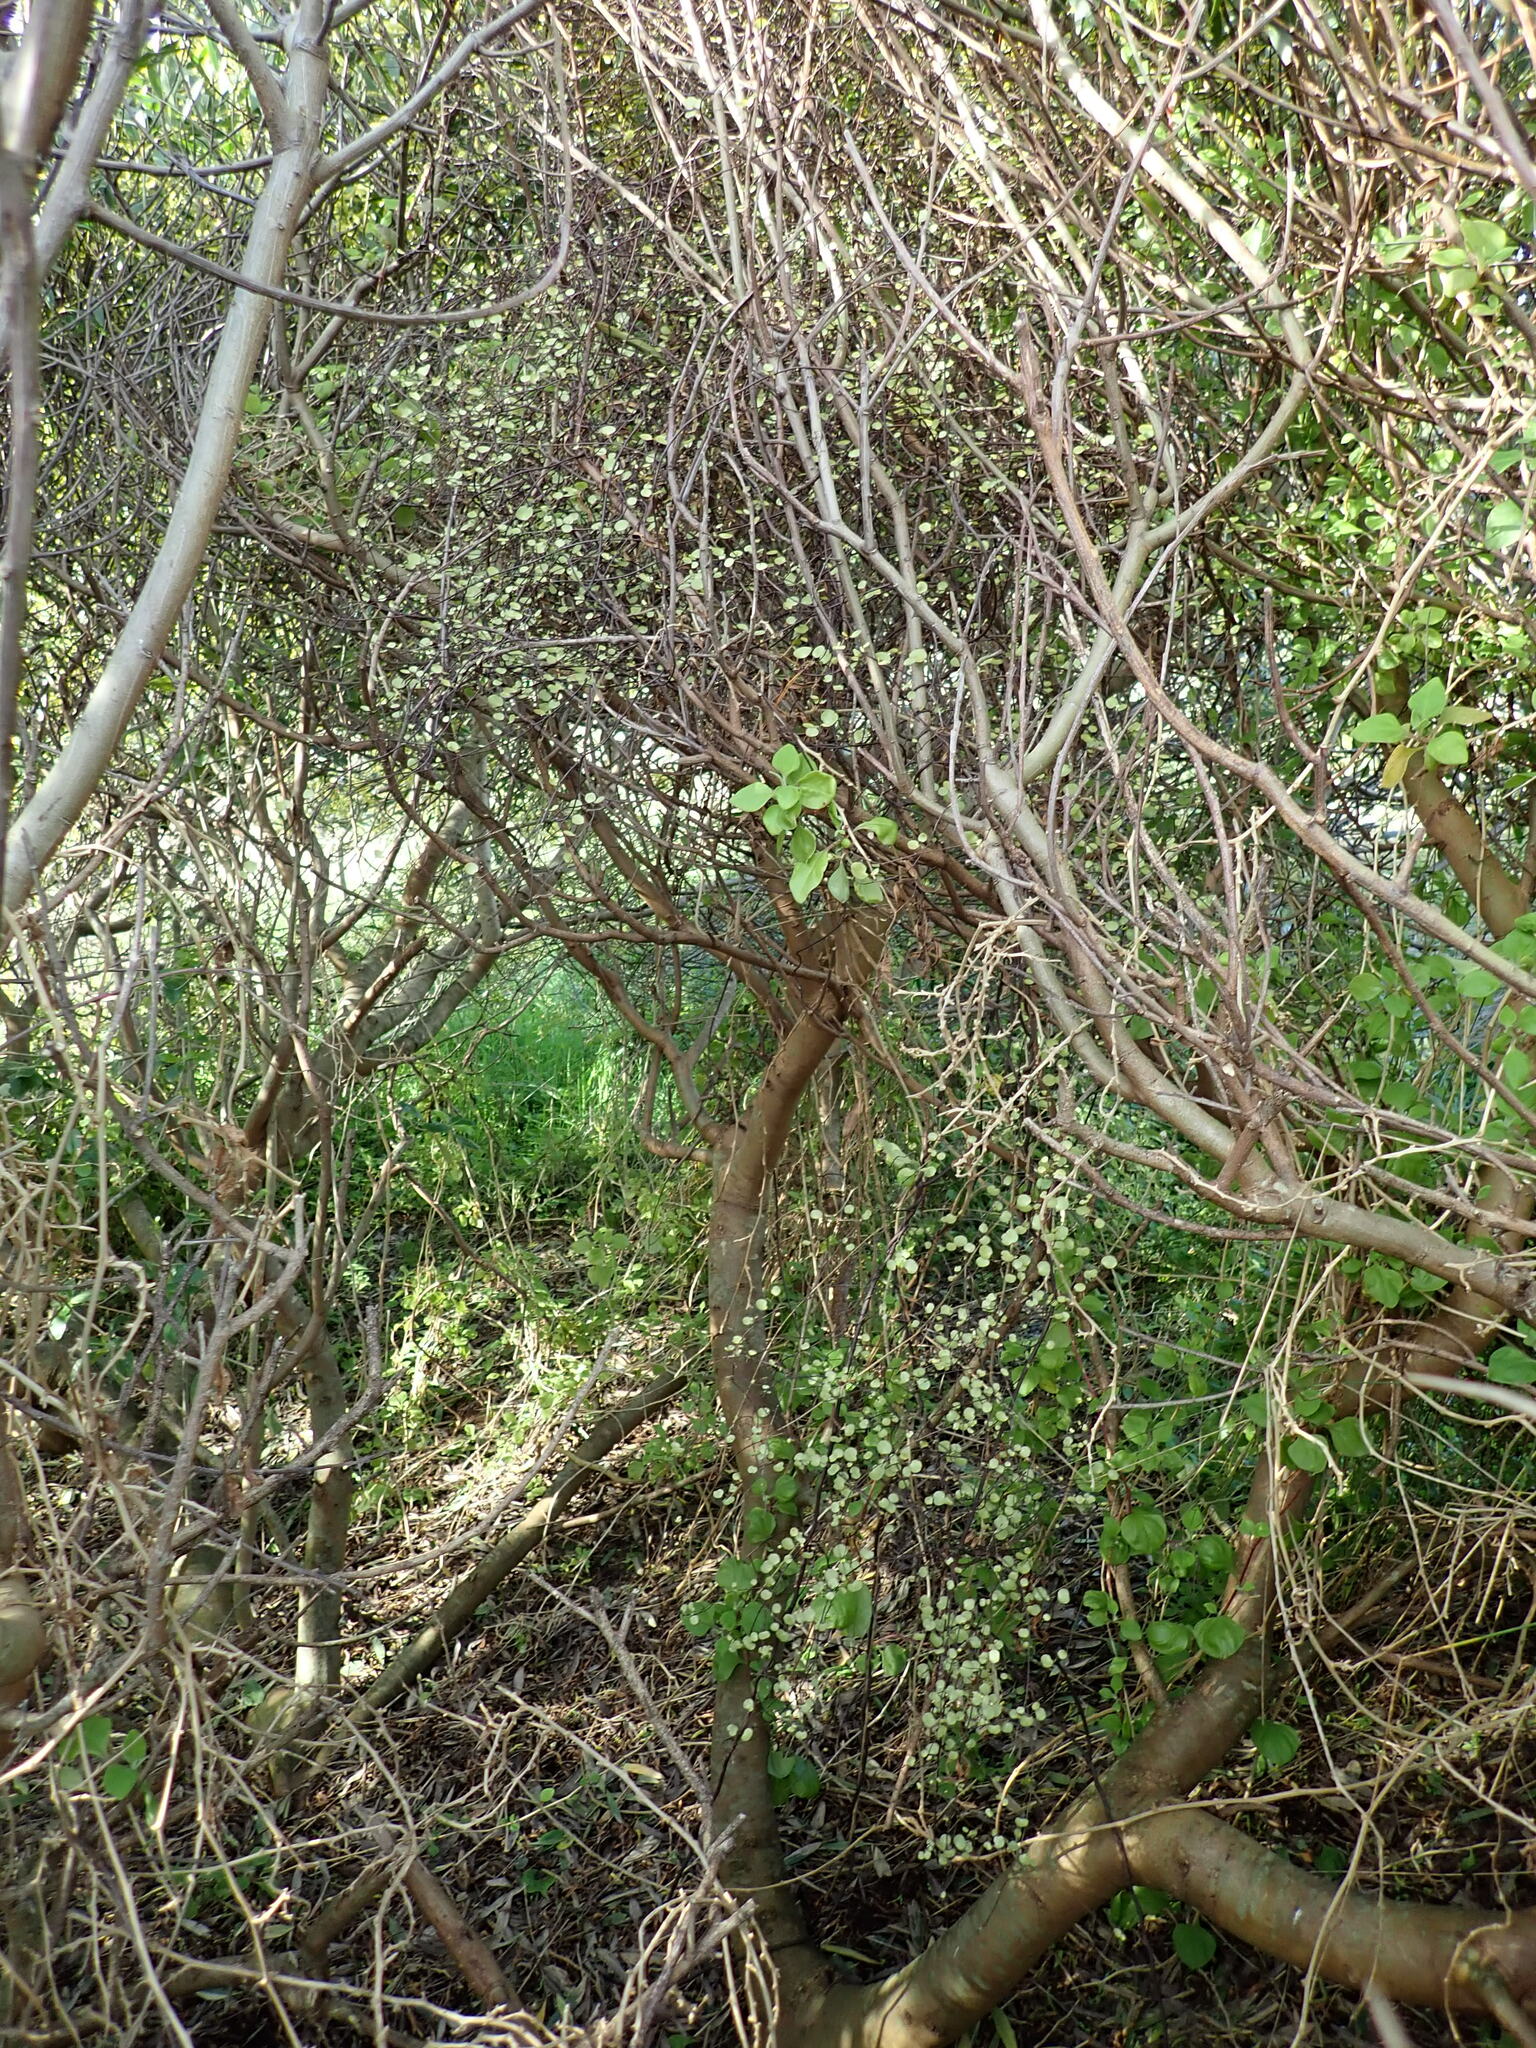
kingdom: Plantae
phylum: Tracheophyta
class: Magnoliopsida
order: Caryophyllales
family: Polygonaceae
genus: Muehlenbeckia
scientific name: Muehlenbeckia complexa
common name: Wireplant
